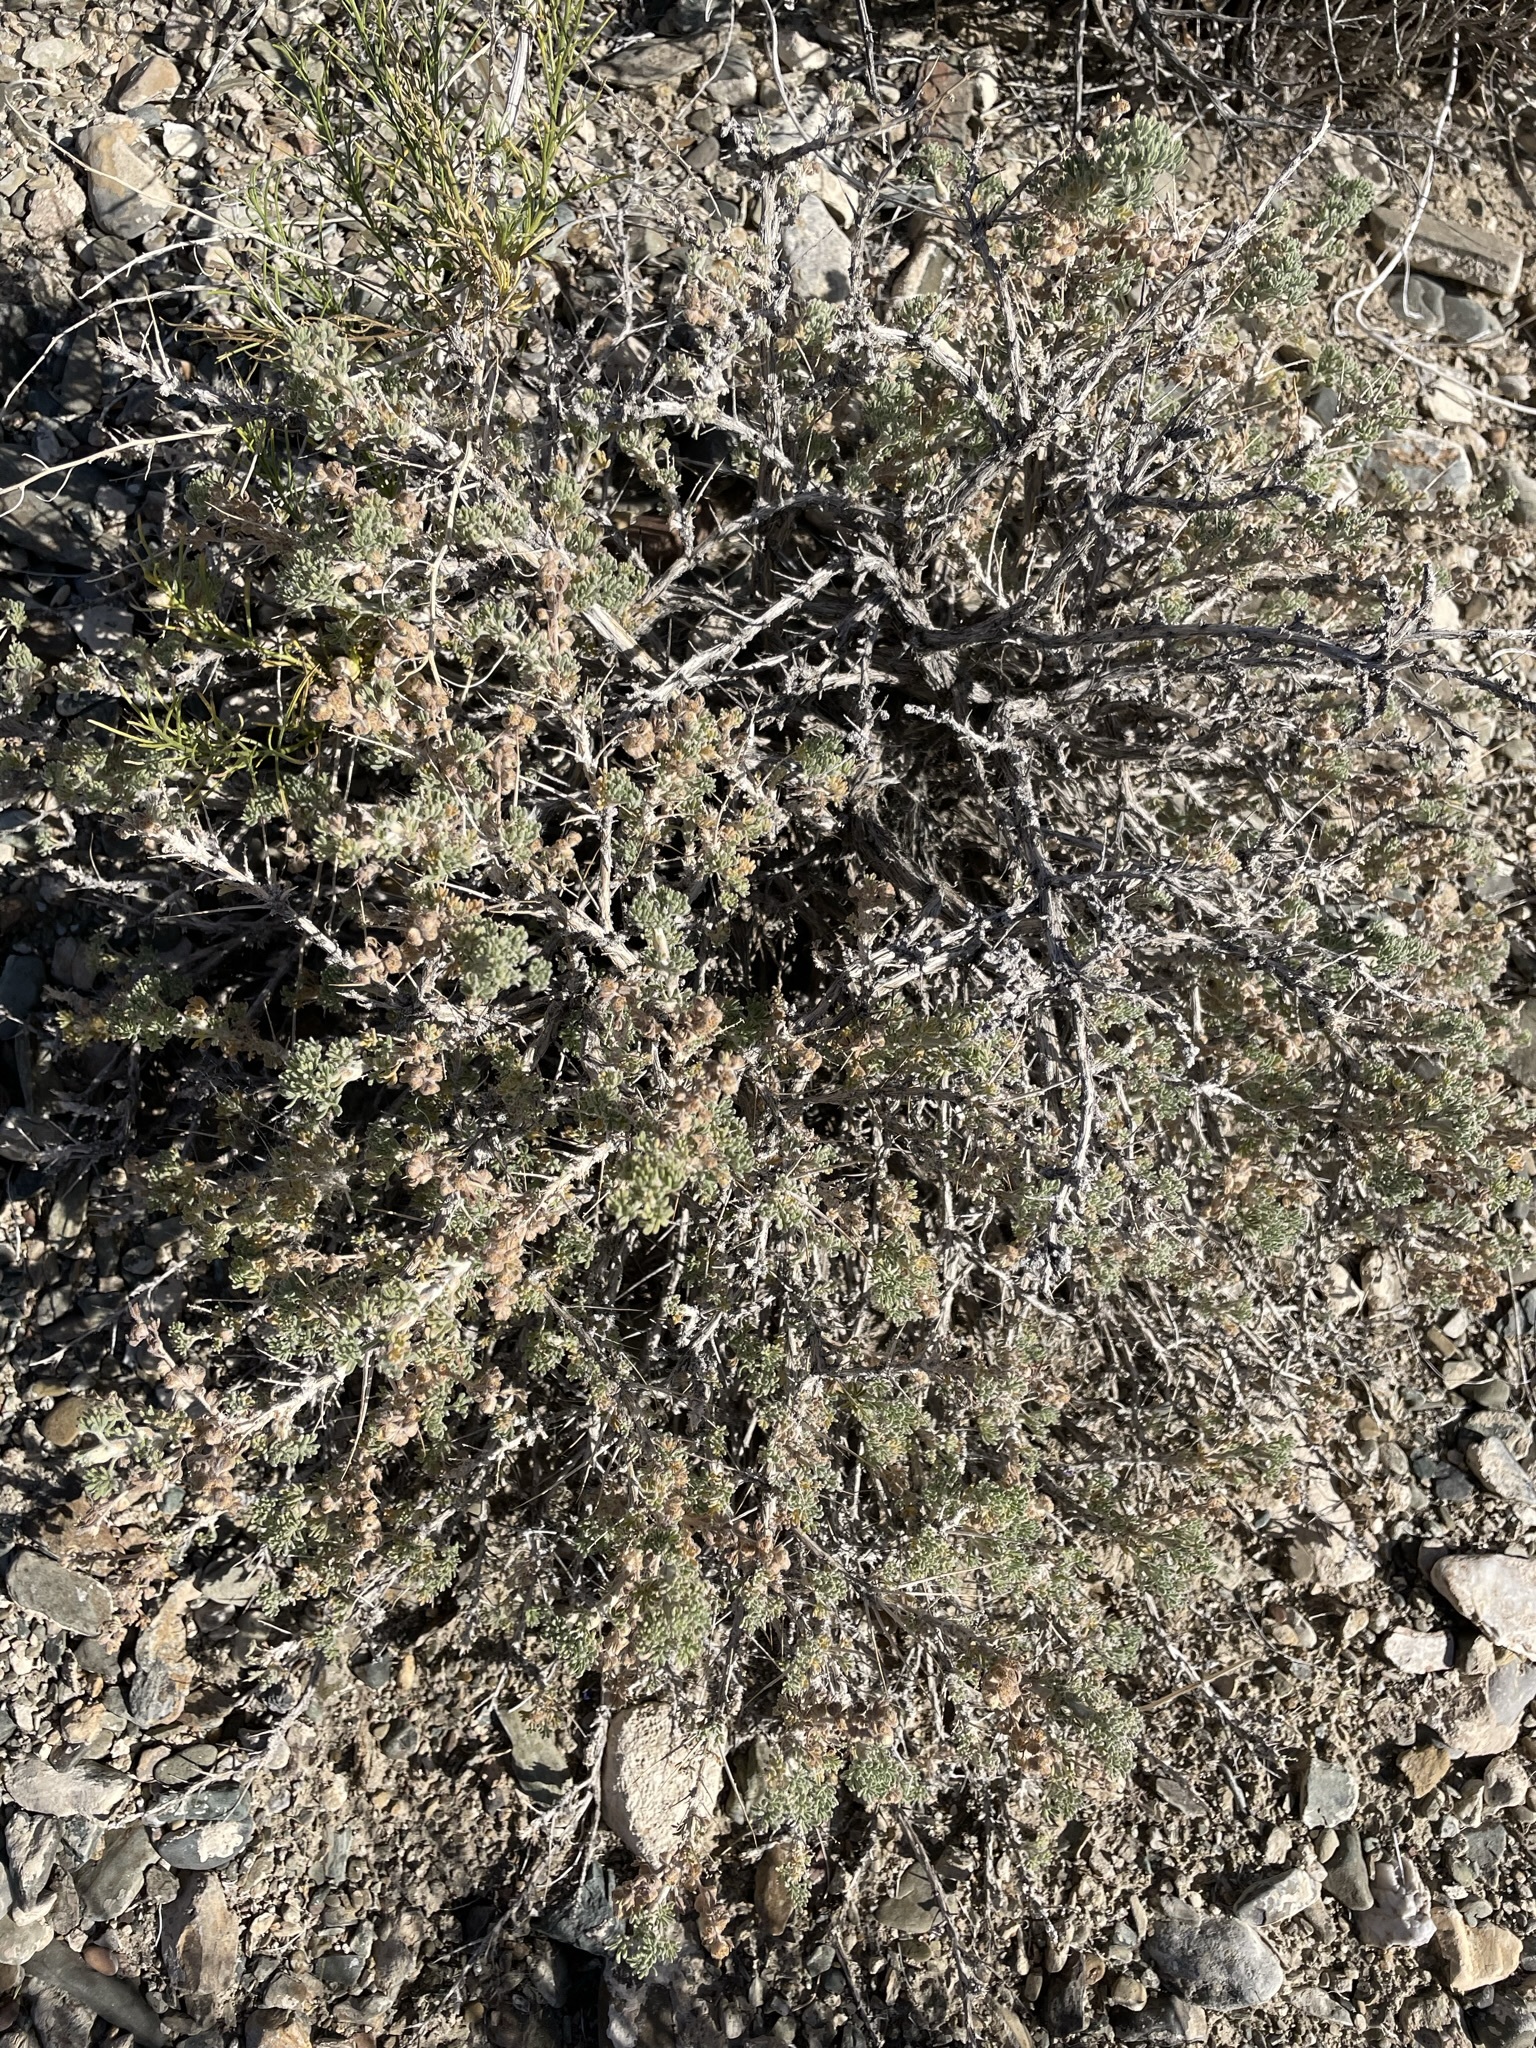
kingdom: Plantae
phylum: Tracheophyta
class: Magnoliopsida
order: Asterales
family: Asteraceae
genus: Artemisia
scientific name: Artemisia spinescens
